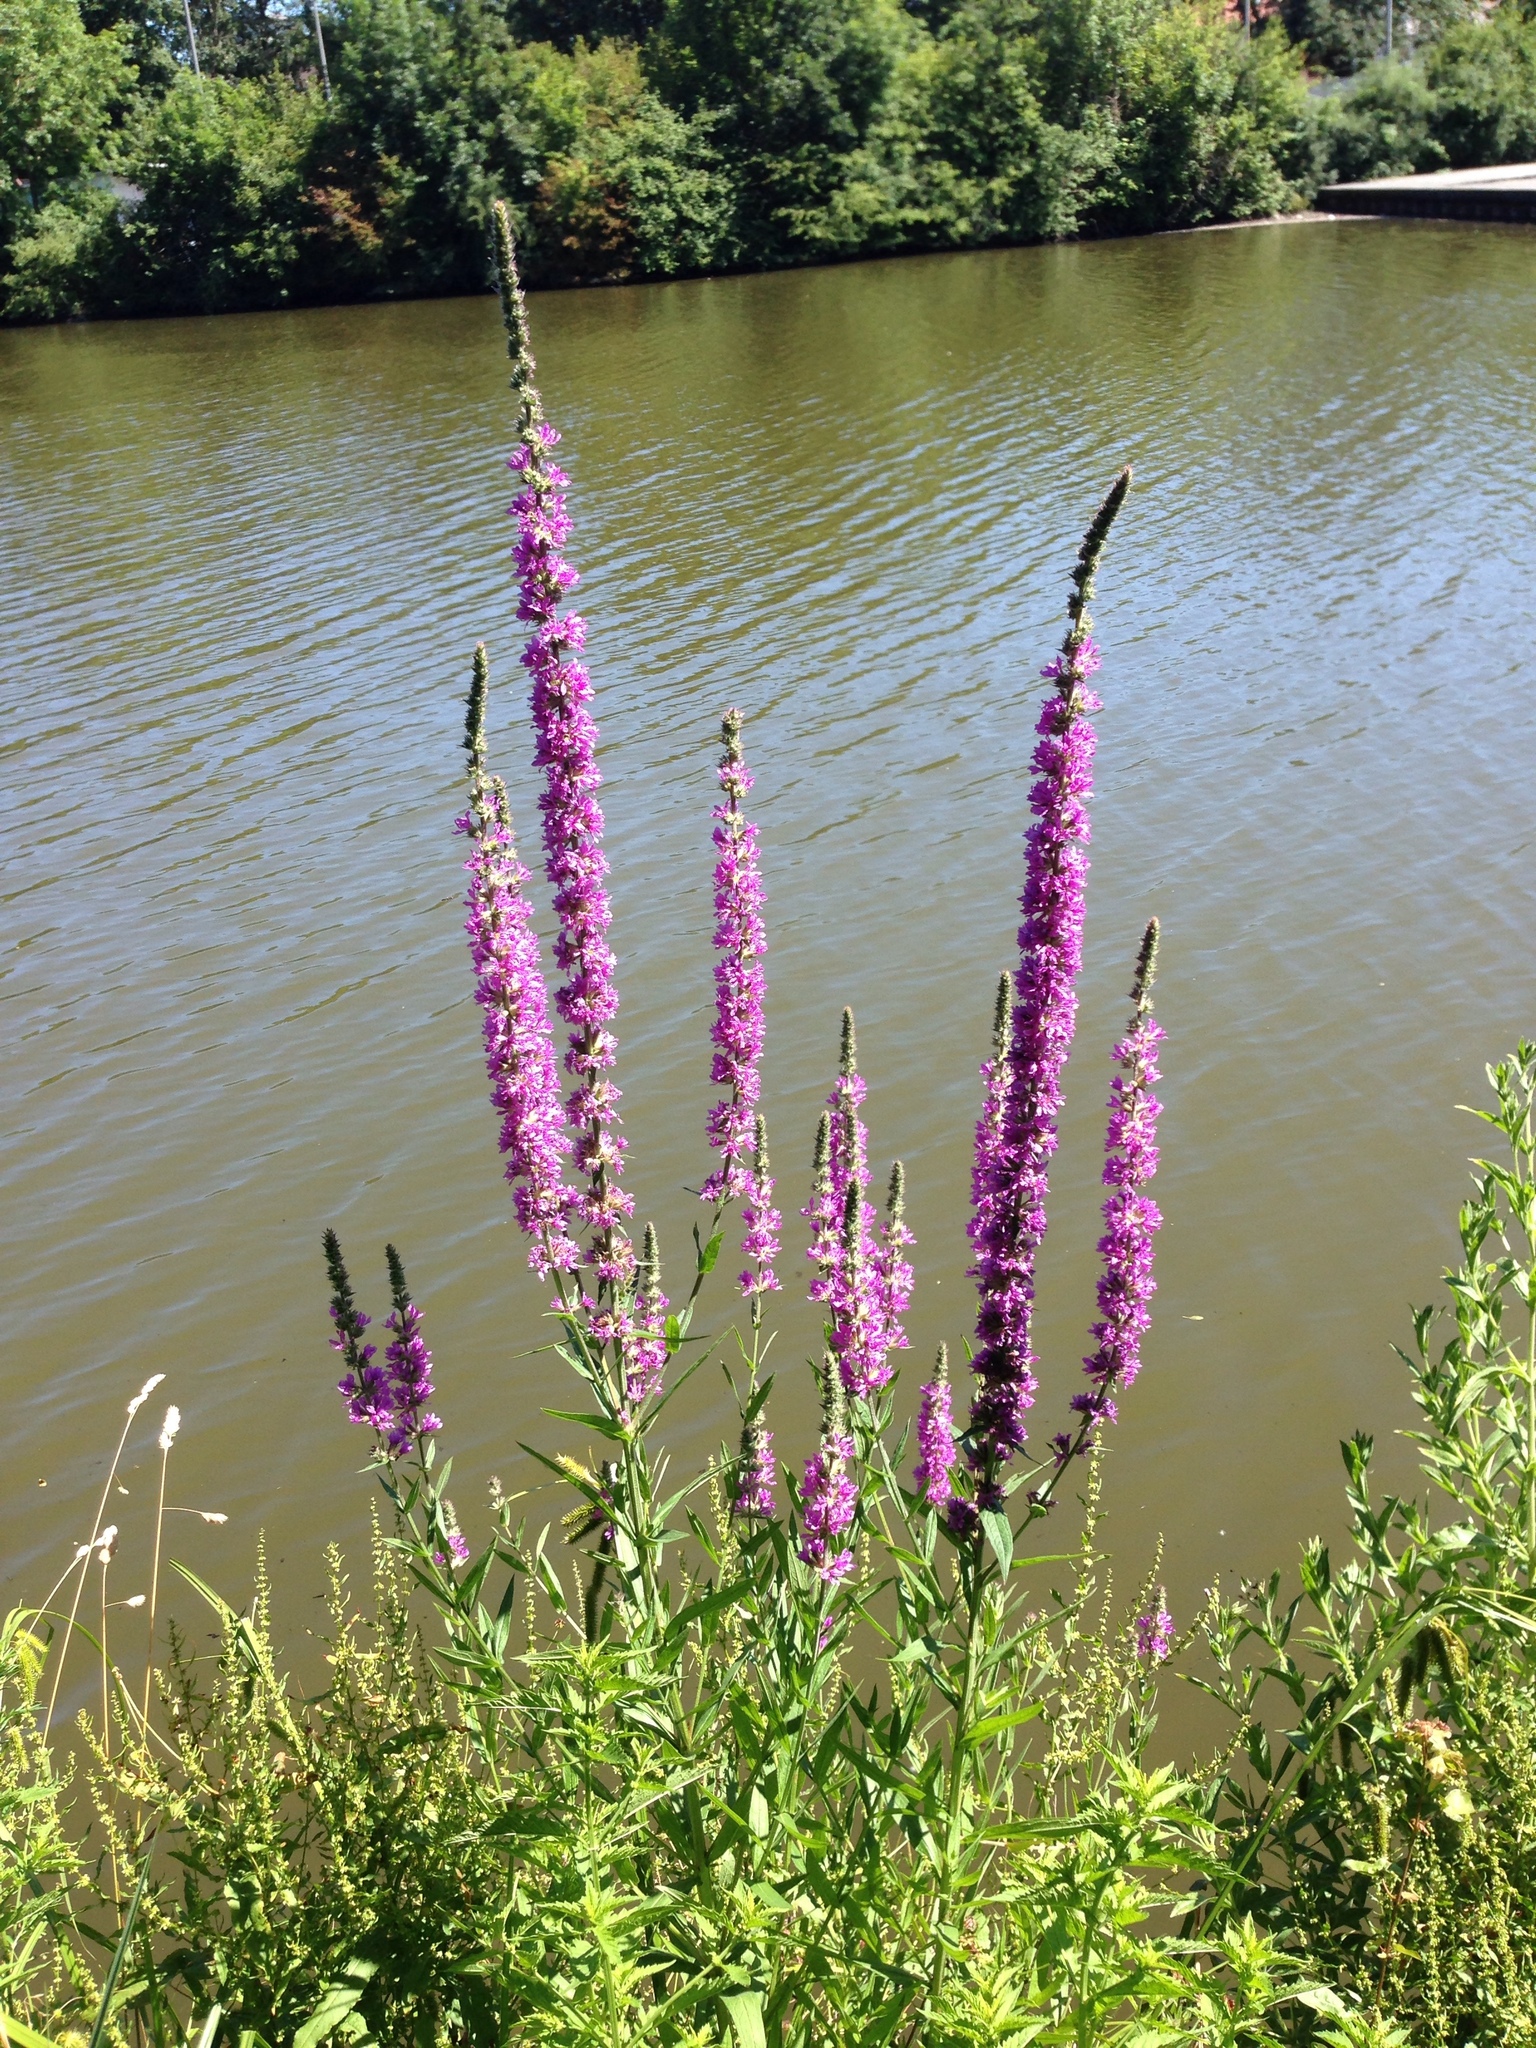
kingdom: Plantae
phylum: Tracheophyta
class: Magnoliopsida
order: Myrtales
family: Lythraceae
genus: Lythrum
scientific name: Lythrum salicaria
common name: Purple loosestrife
